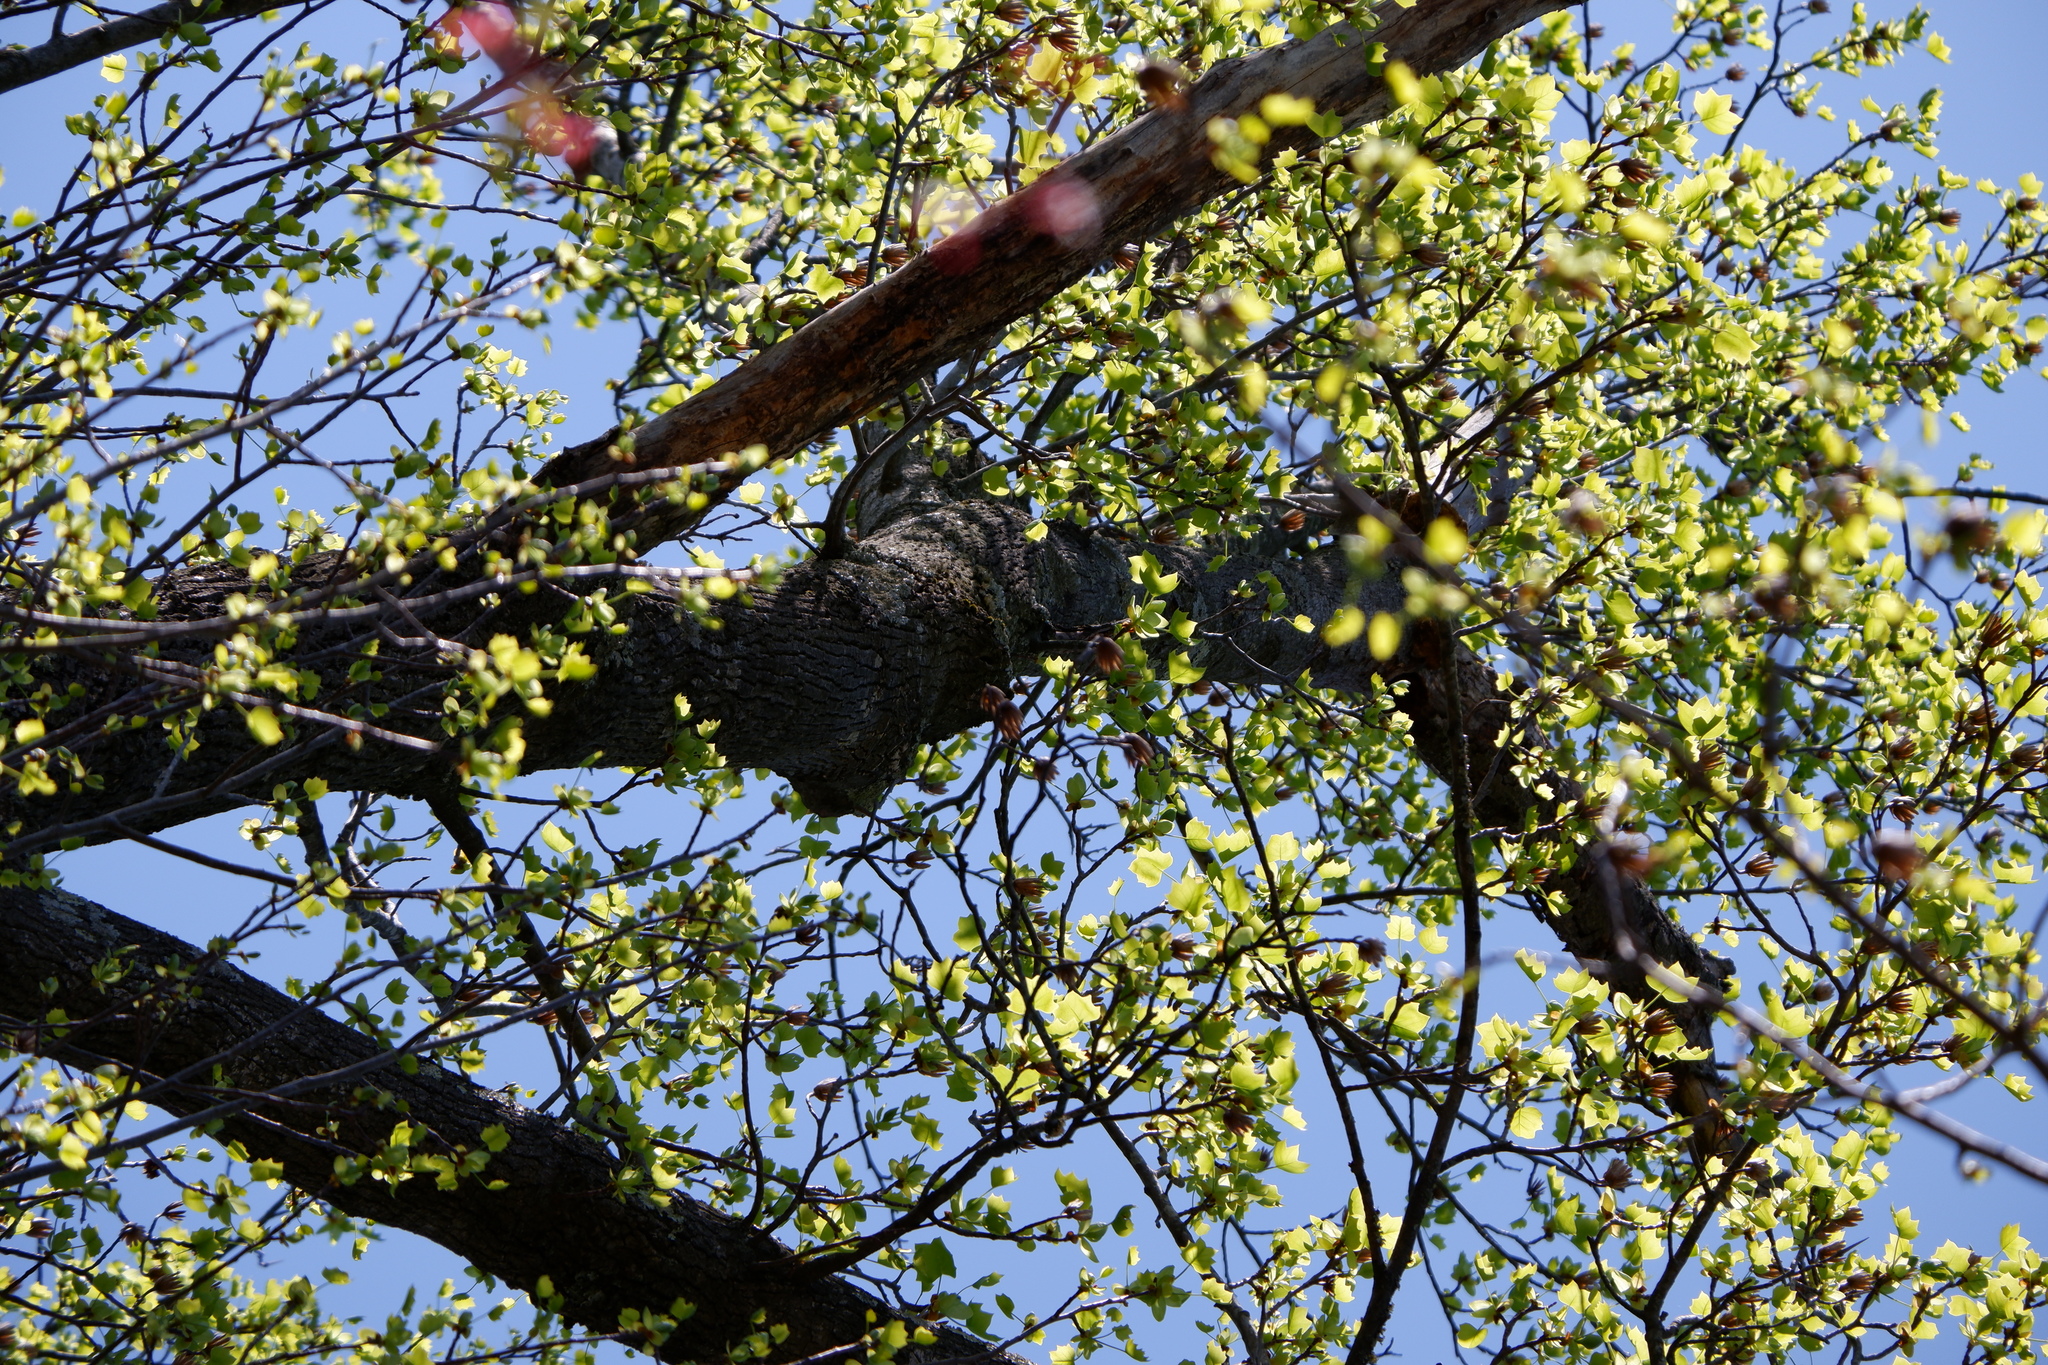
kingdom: Plantae
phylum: Tracheophyta
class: Magnoliopsida
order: Magnoliales
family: Magnoliaceae
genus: Liriodendron
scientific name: Liriodendron tulipifera
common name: Tulip tree
